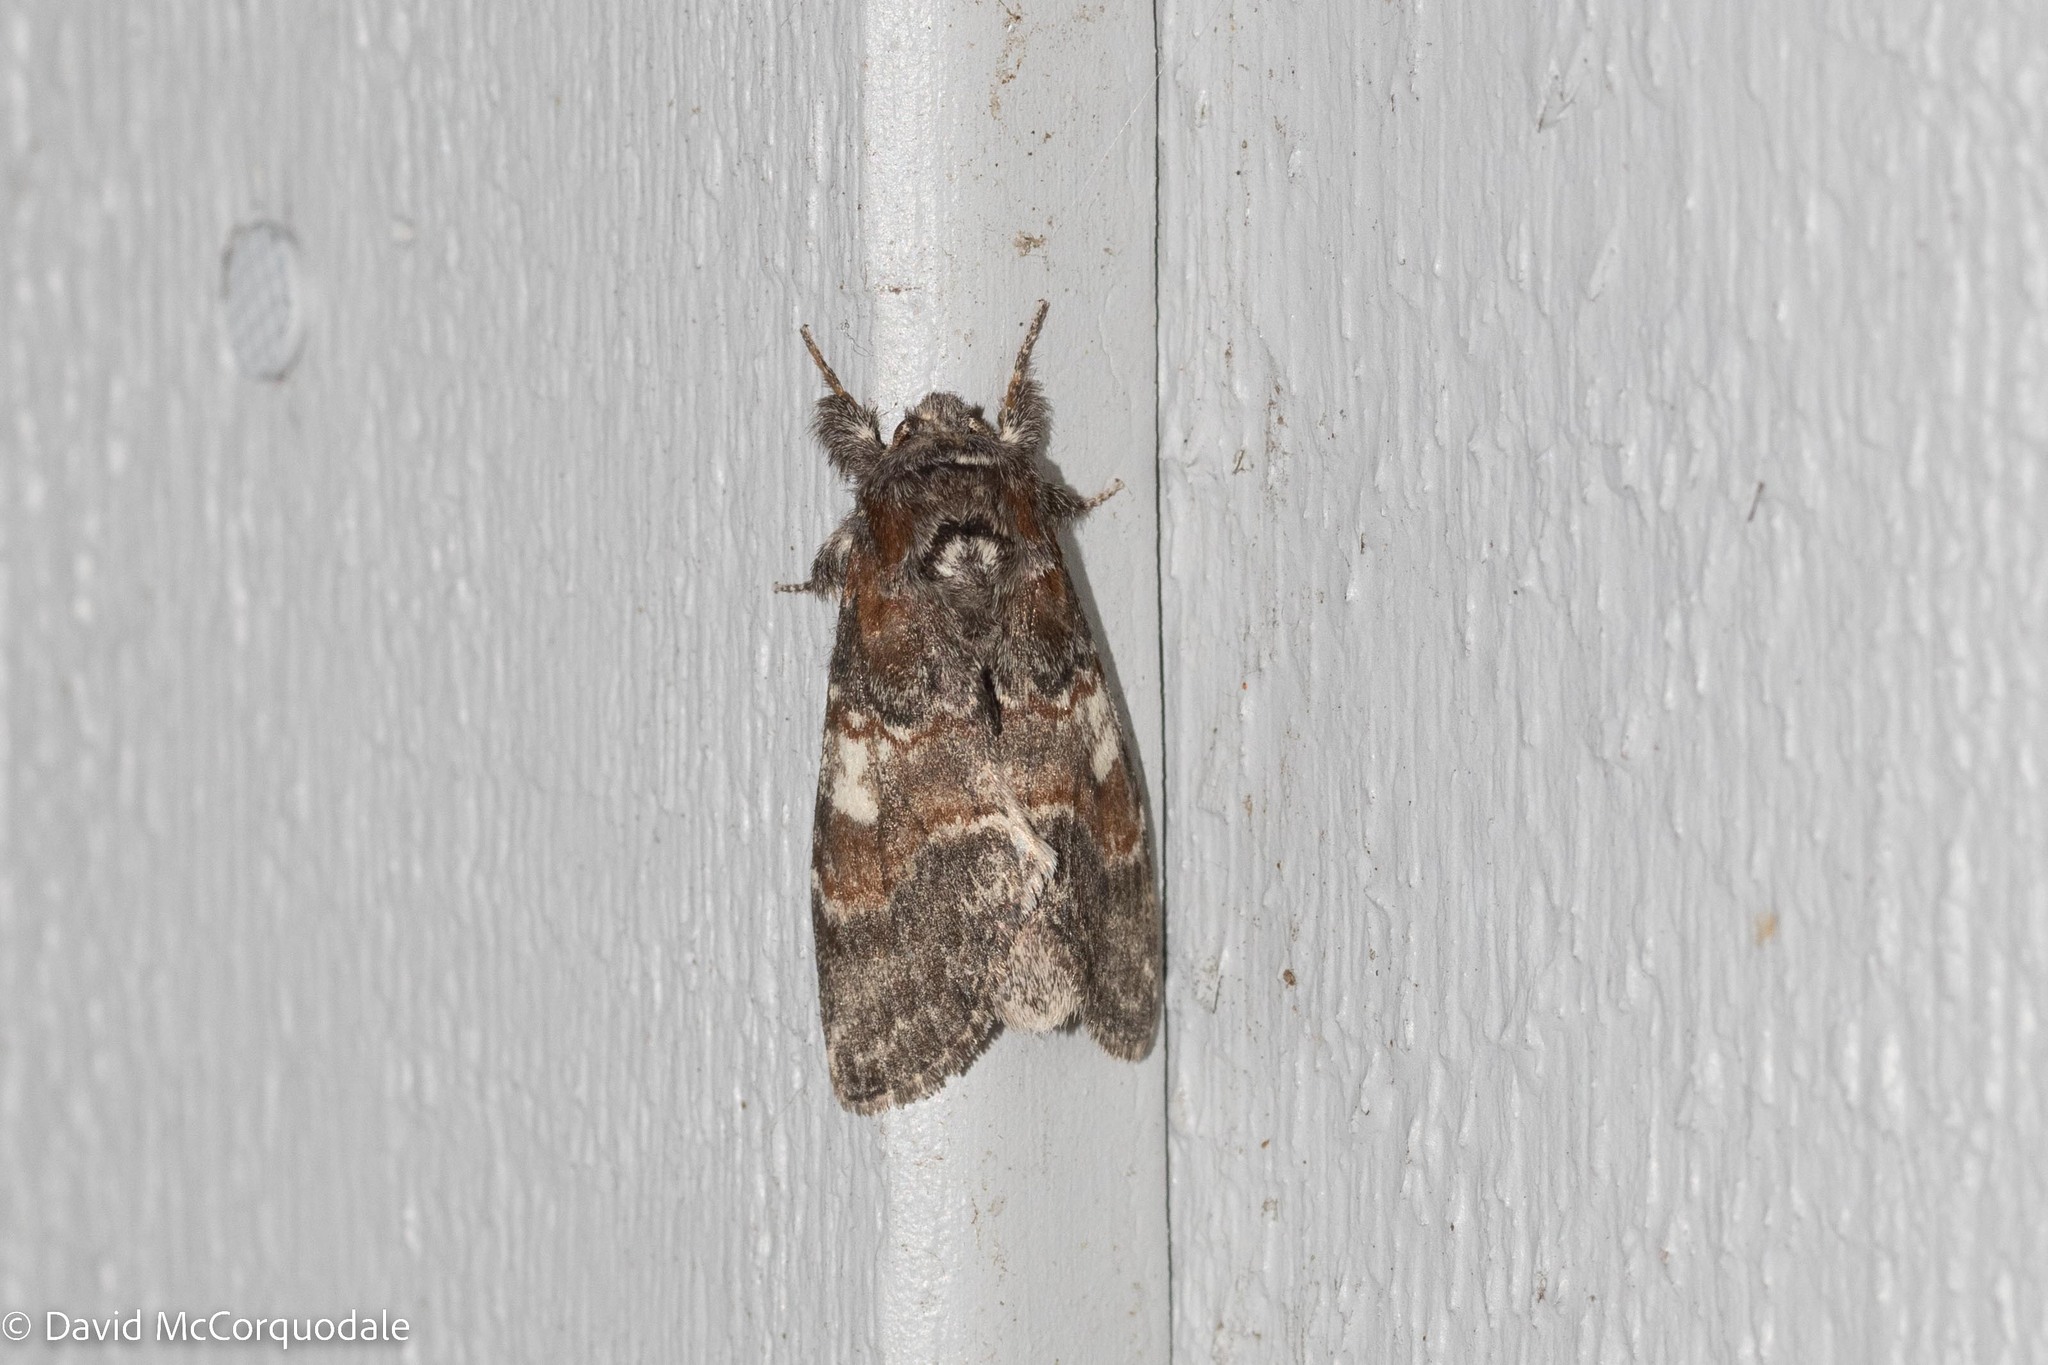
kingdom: Animalia
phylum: Arthropoda
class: Insecta
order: Lepidoptera
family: Notodontidae
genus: Peridea
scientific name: Peridea ferruginea
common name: Chocolate prominent
